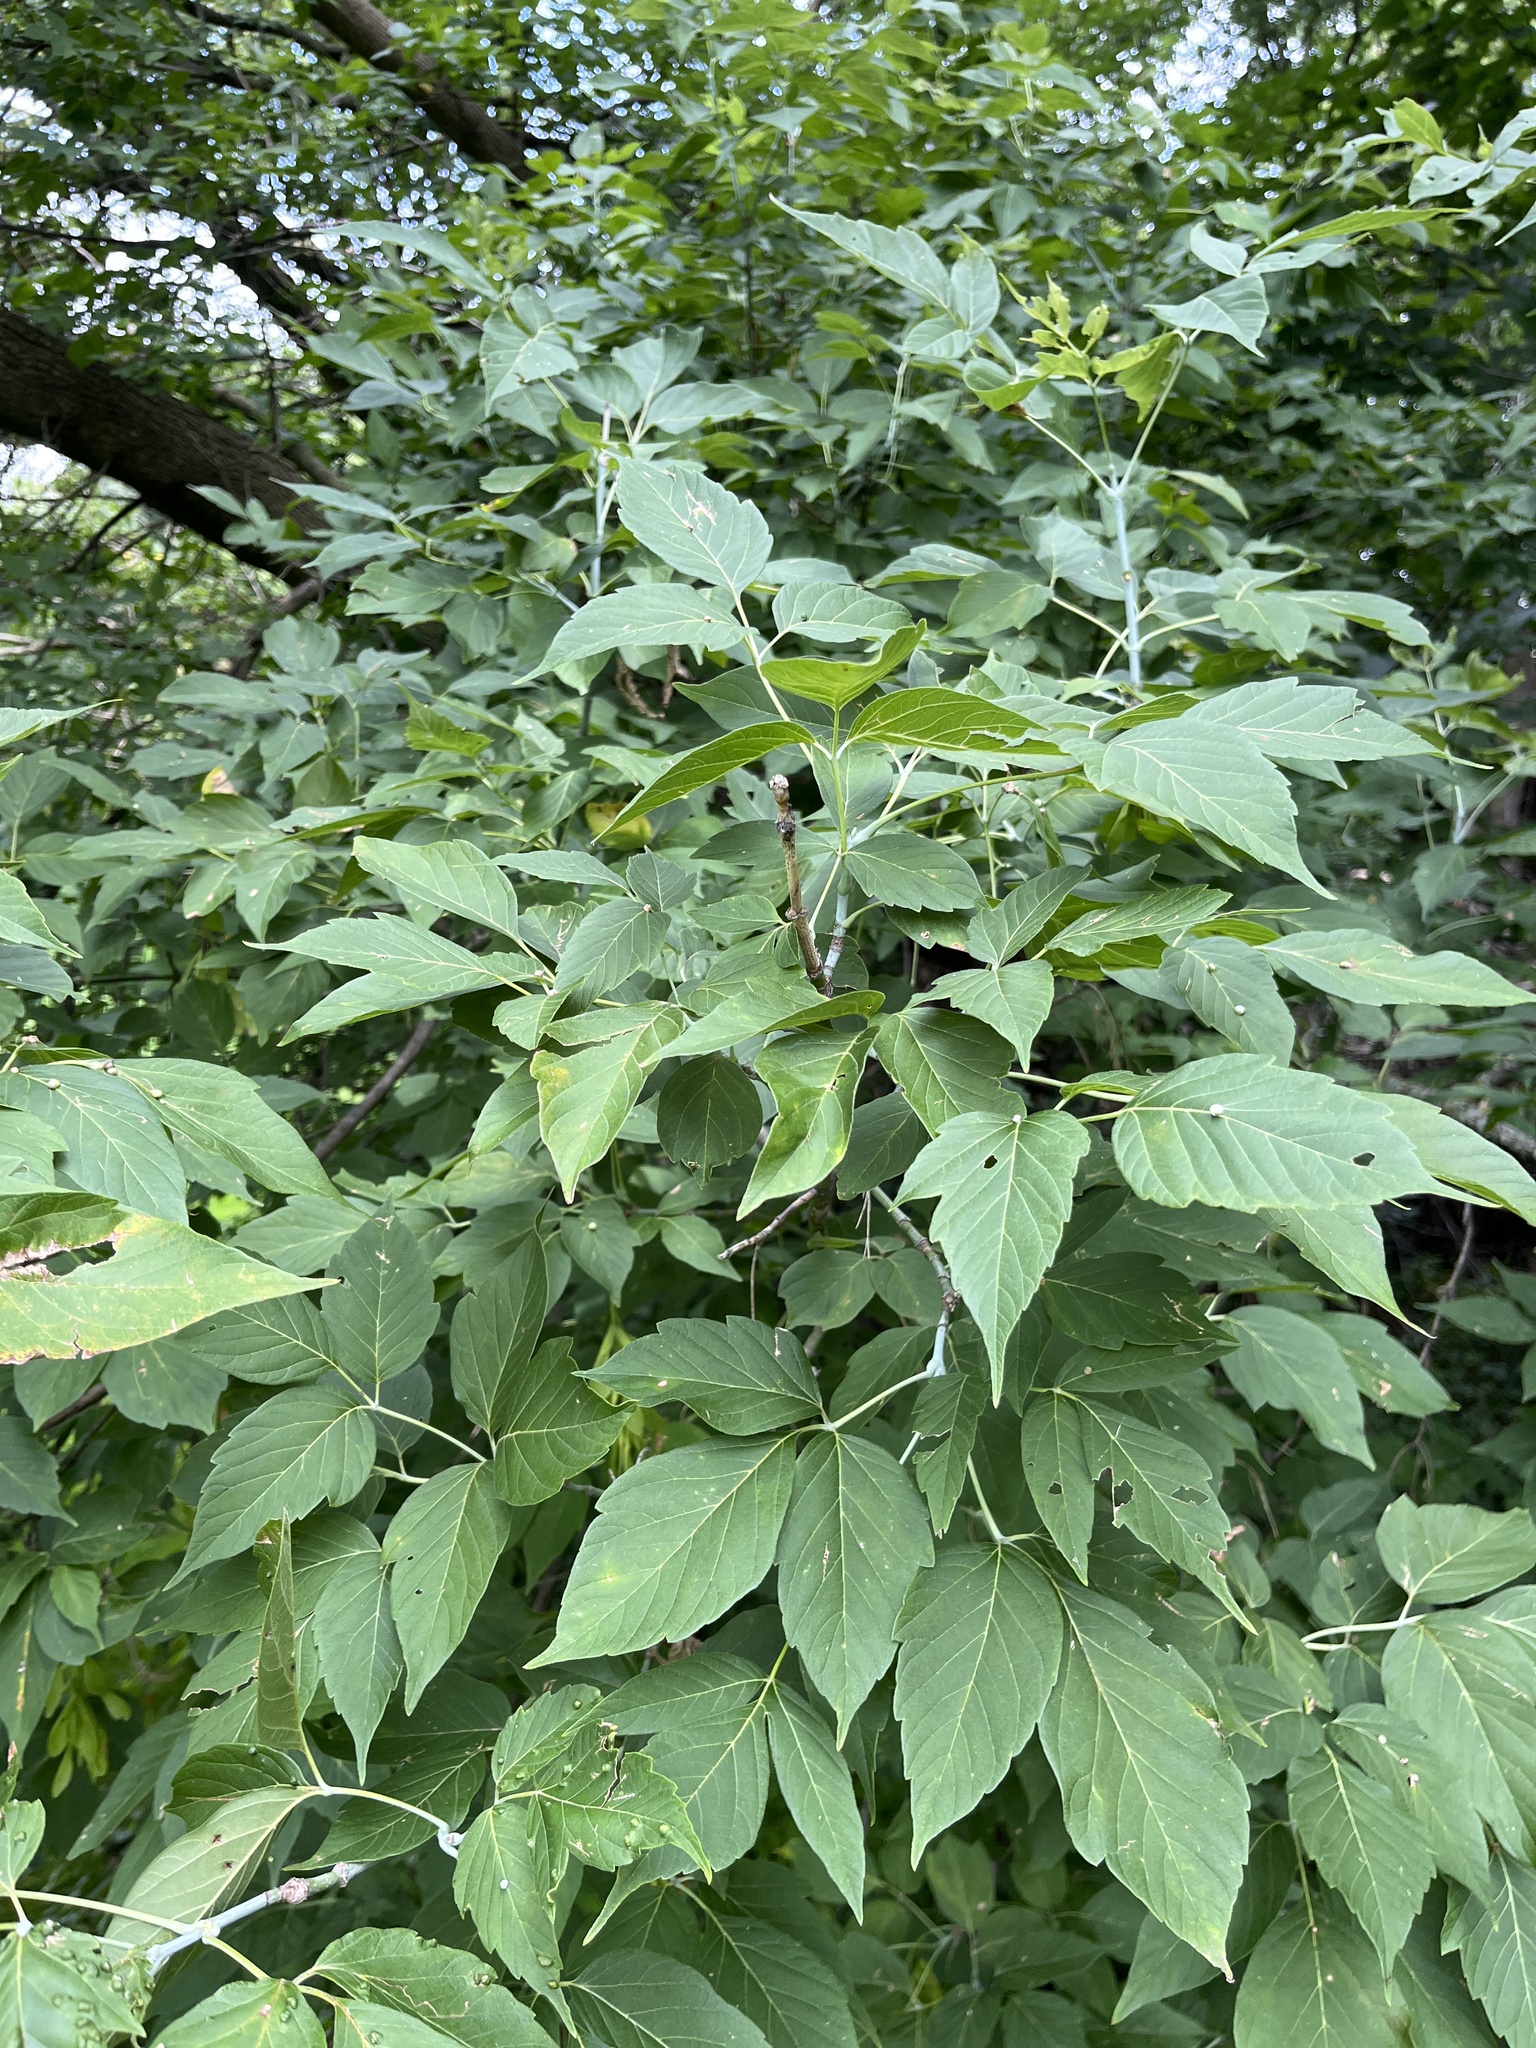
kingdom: Plantae
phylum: Tracheophyta
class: Magnoliopsida
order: Sapindales
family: Sapindaceae
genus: Acer
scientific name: Acer negundo
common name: Ashleaf maple
